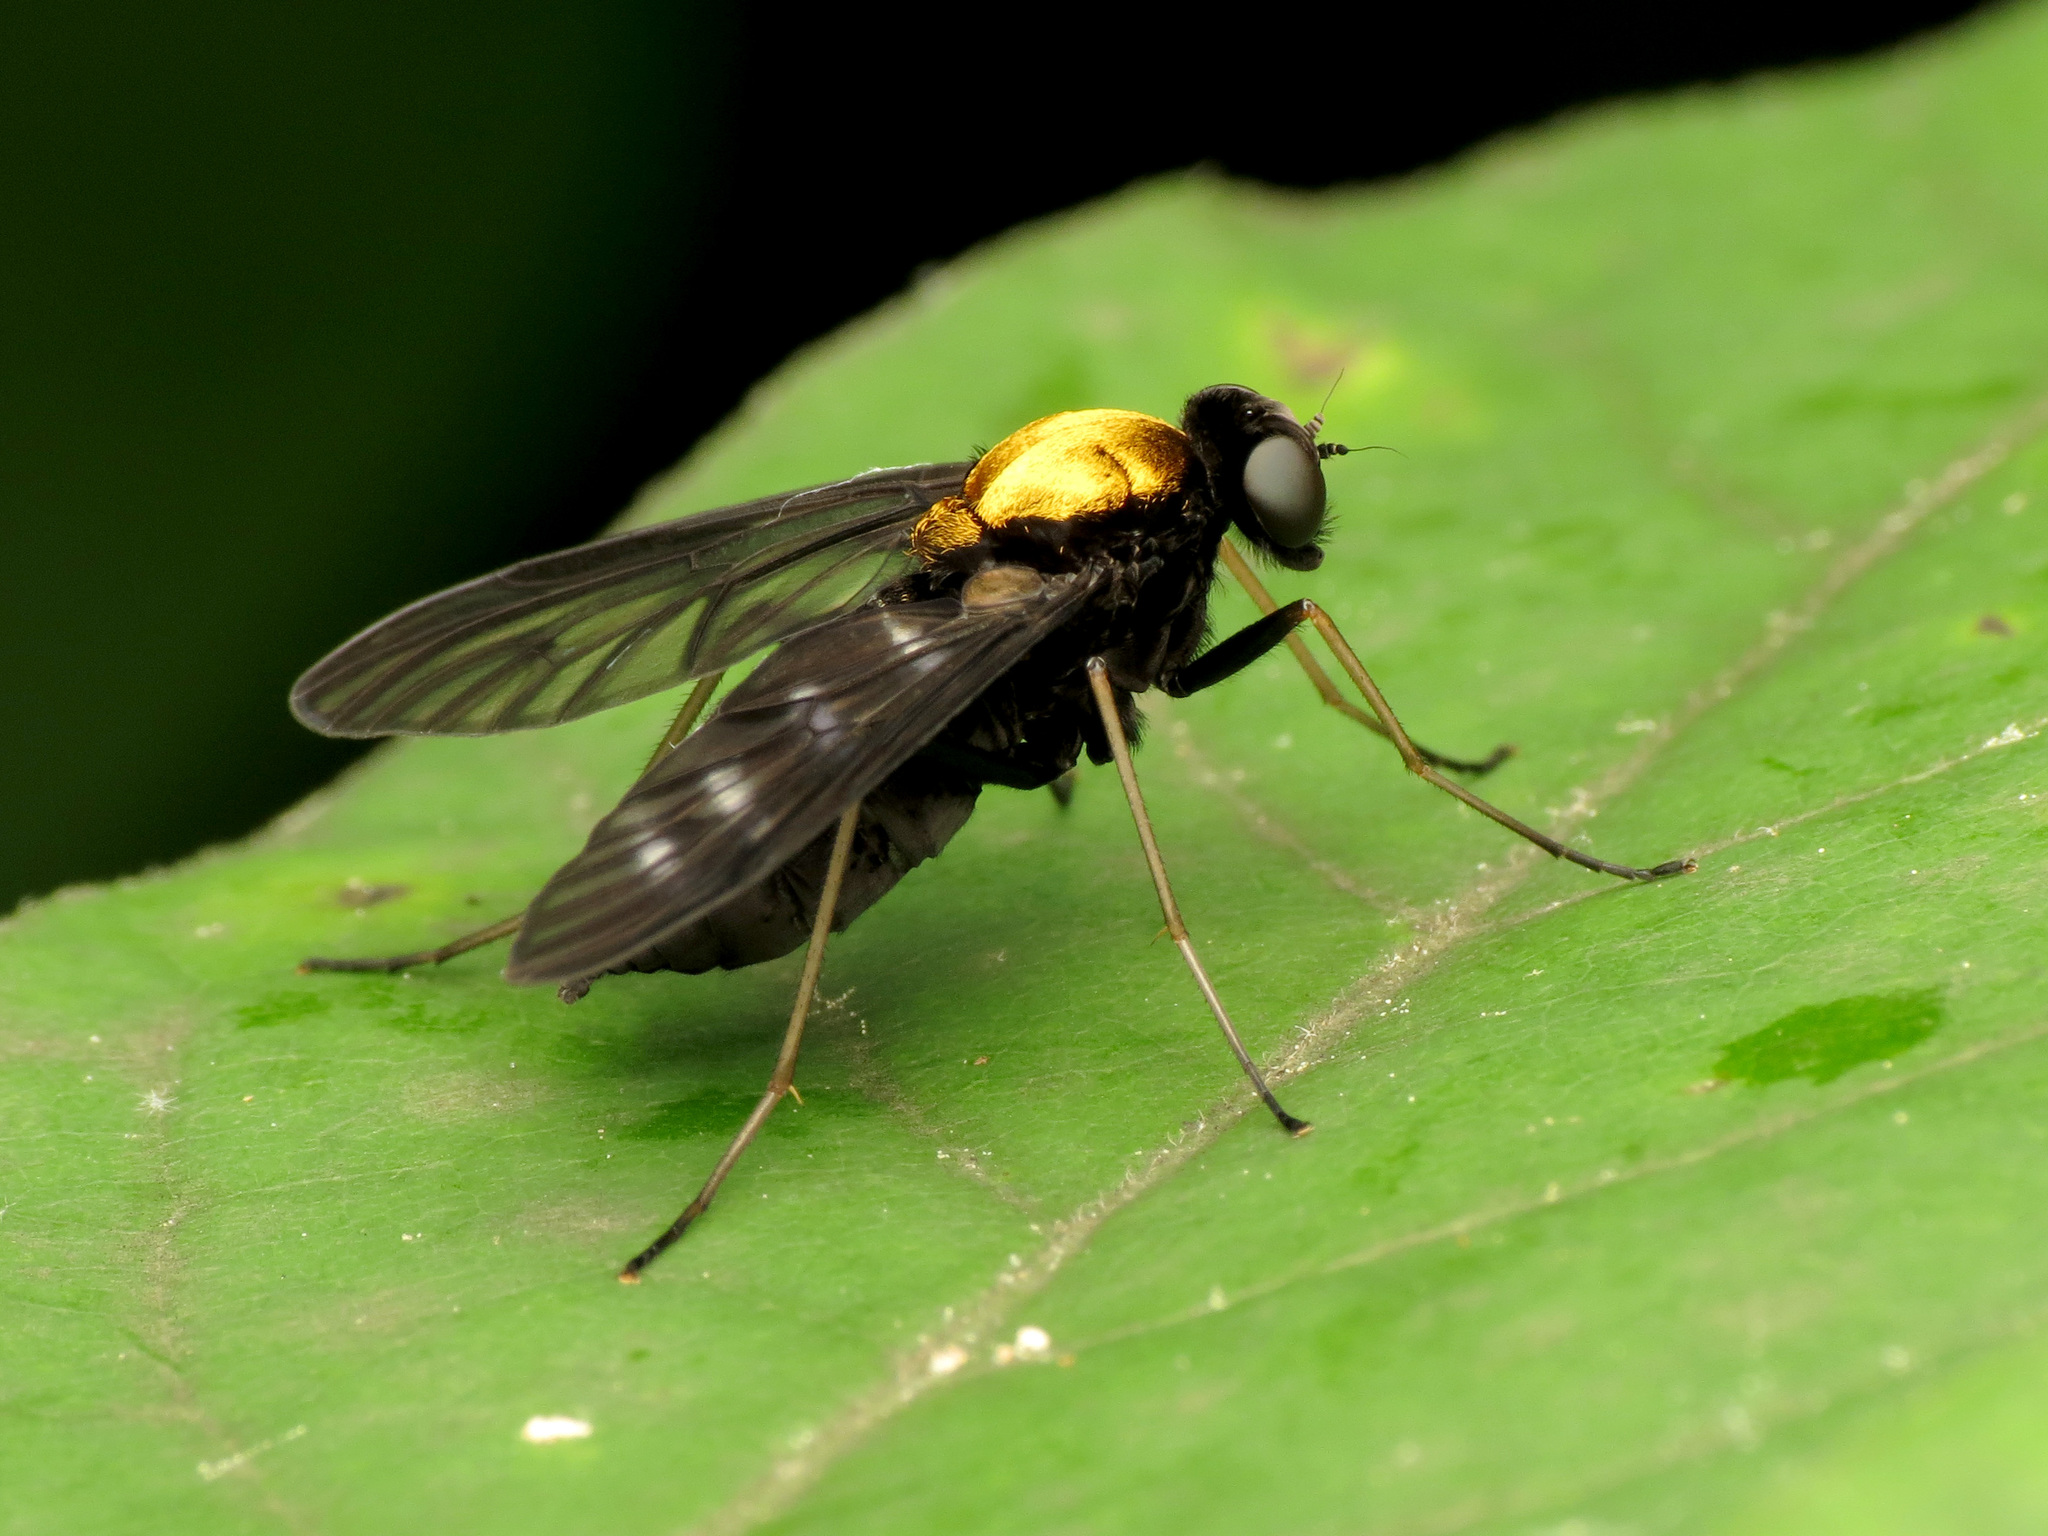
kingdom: Animalia
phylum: Arthropoda
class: Insecta
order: Diptera
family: Rhagionidae
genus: Chrysopilus
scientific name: Chrysopilus thoracicus
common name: Golden-backed snipe fly
